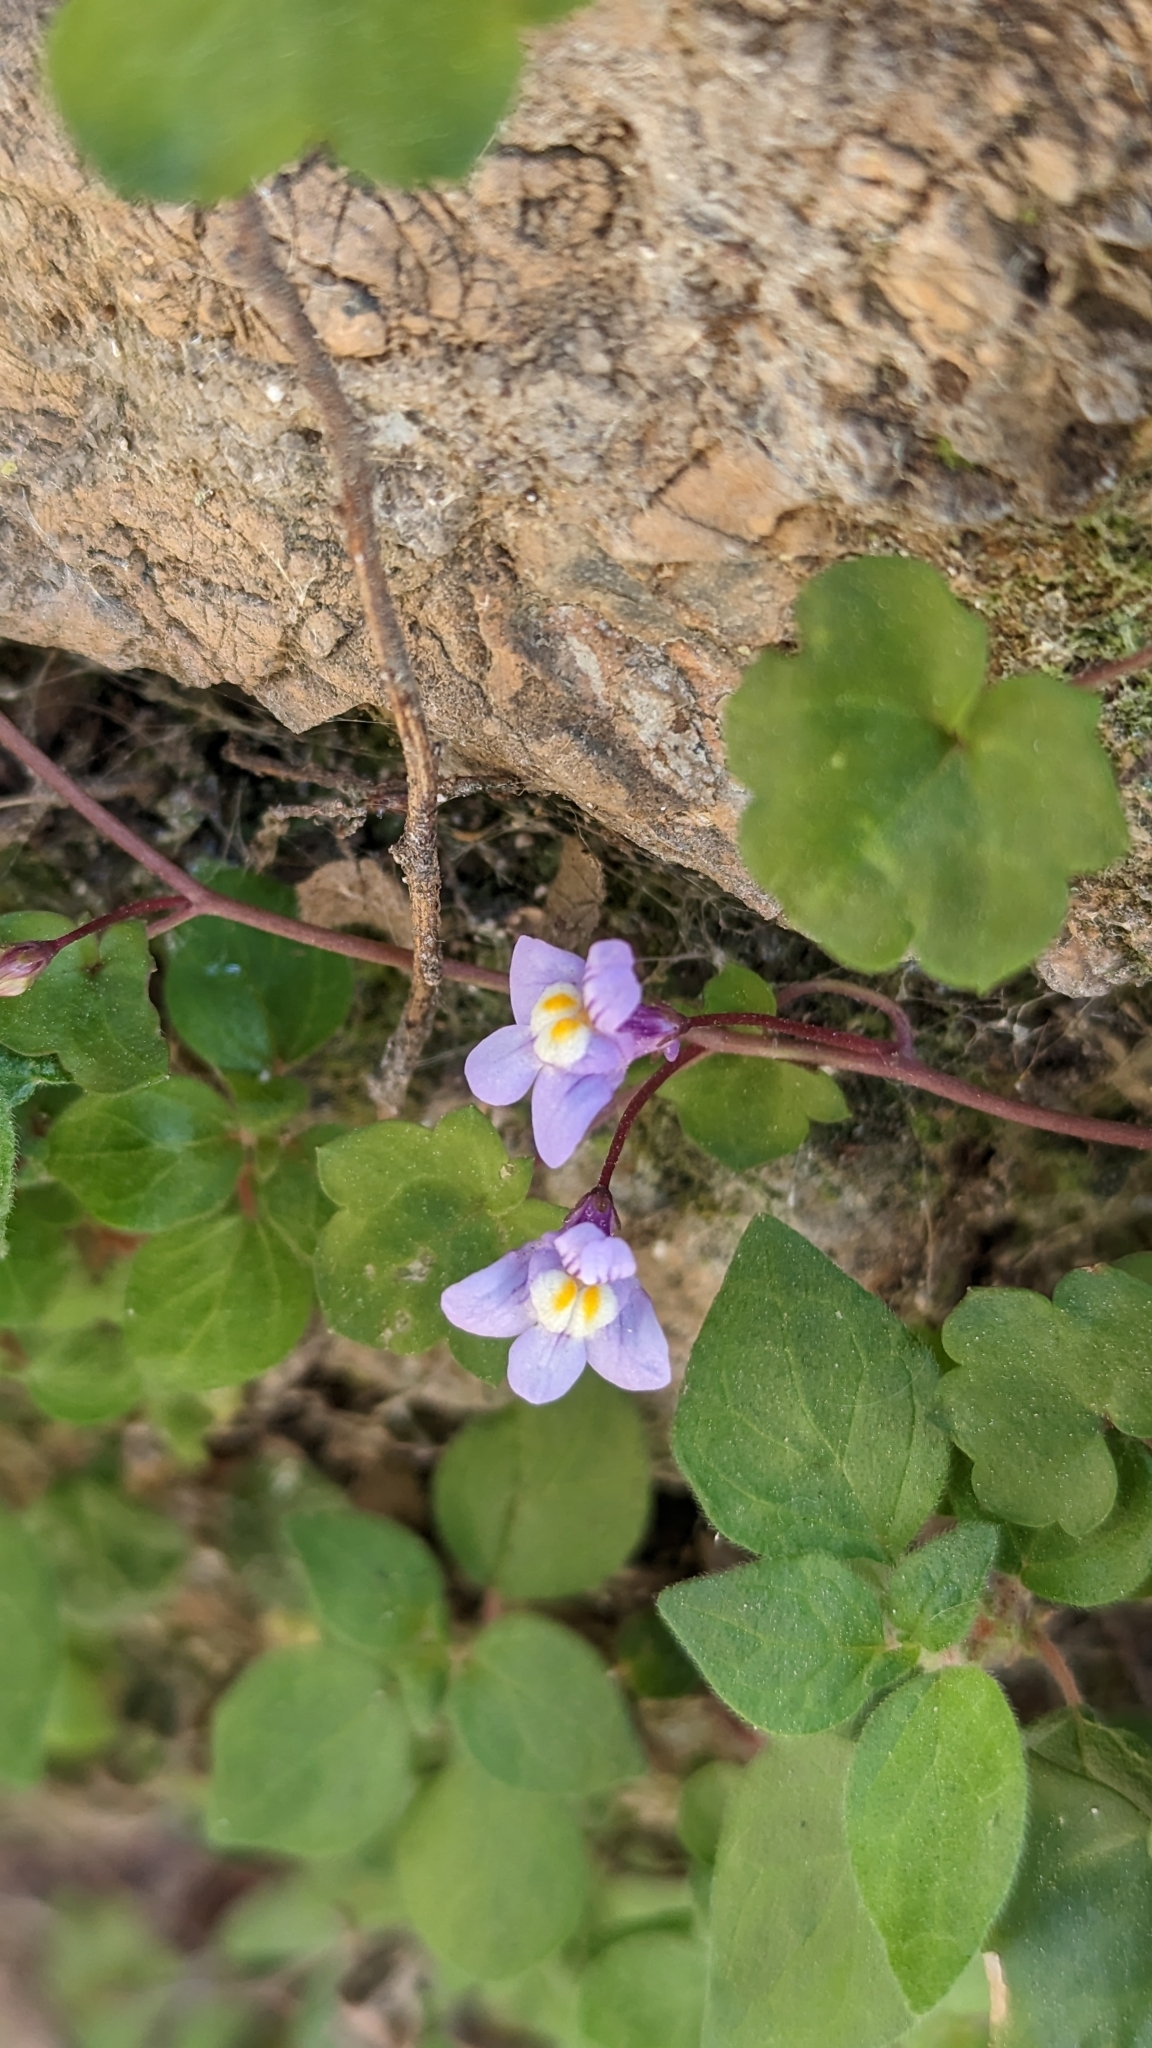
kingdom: Plantae
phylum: Tracheophyta
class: Magnoliopsida
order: Lamiales
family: Plantaginaceae
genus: Cymbalaria
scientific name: Cymbalaria muralis
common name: Ivy-leaved toadflax
